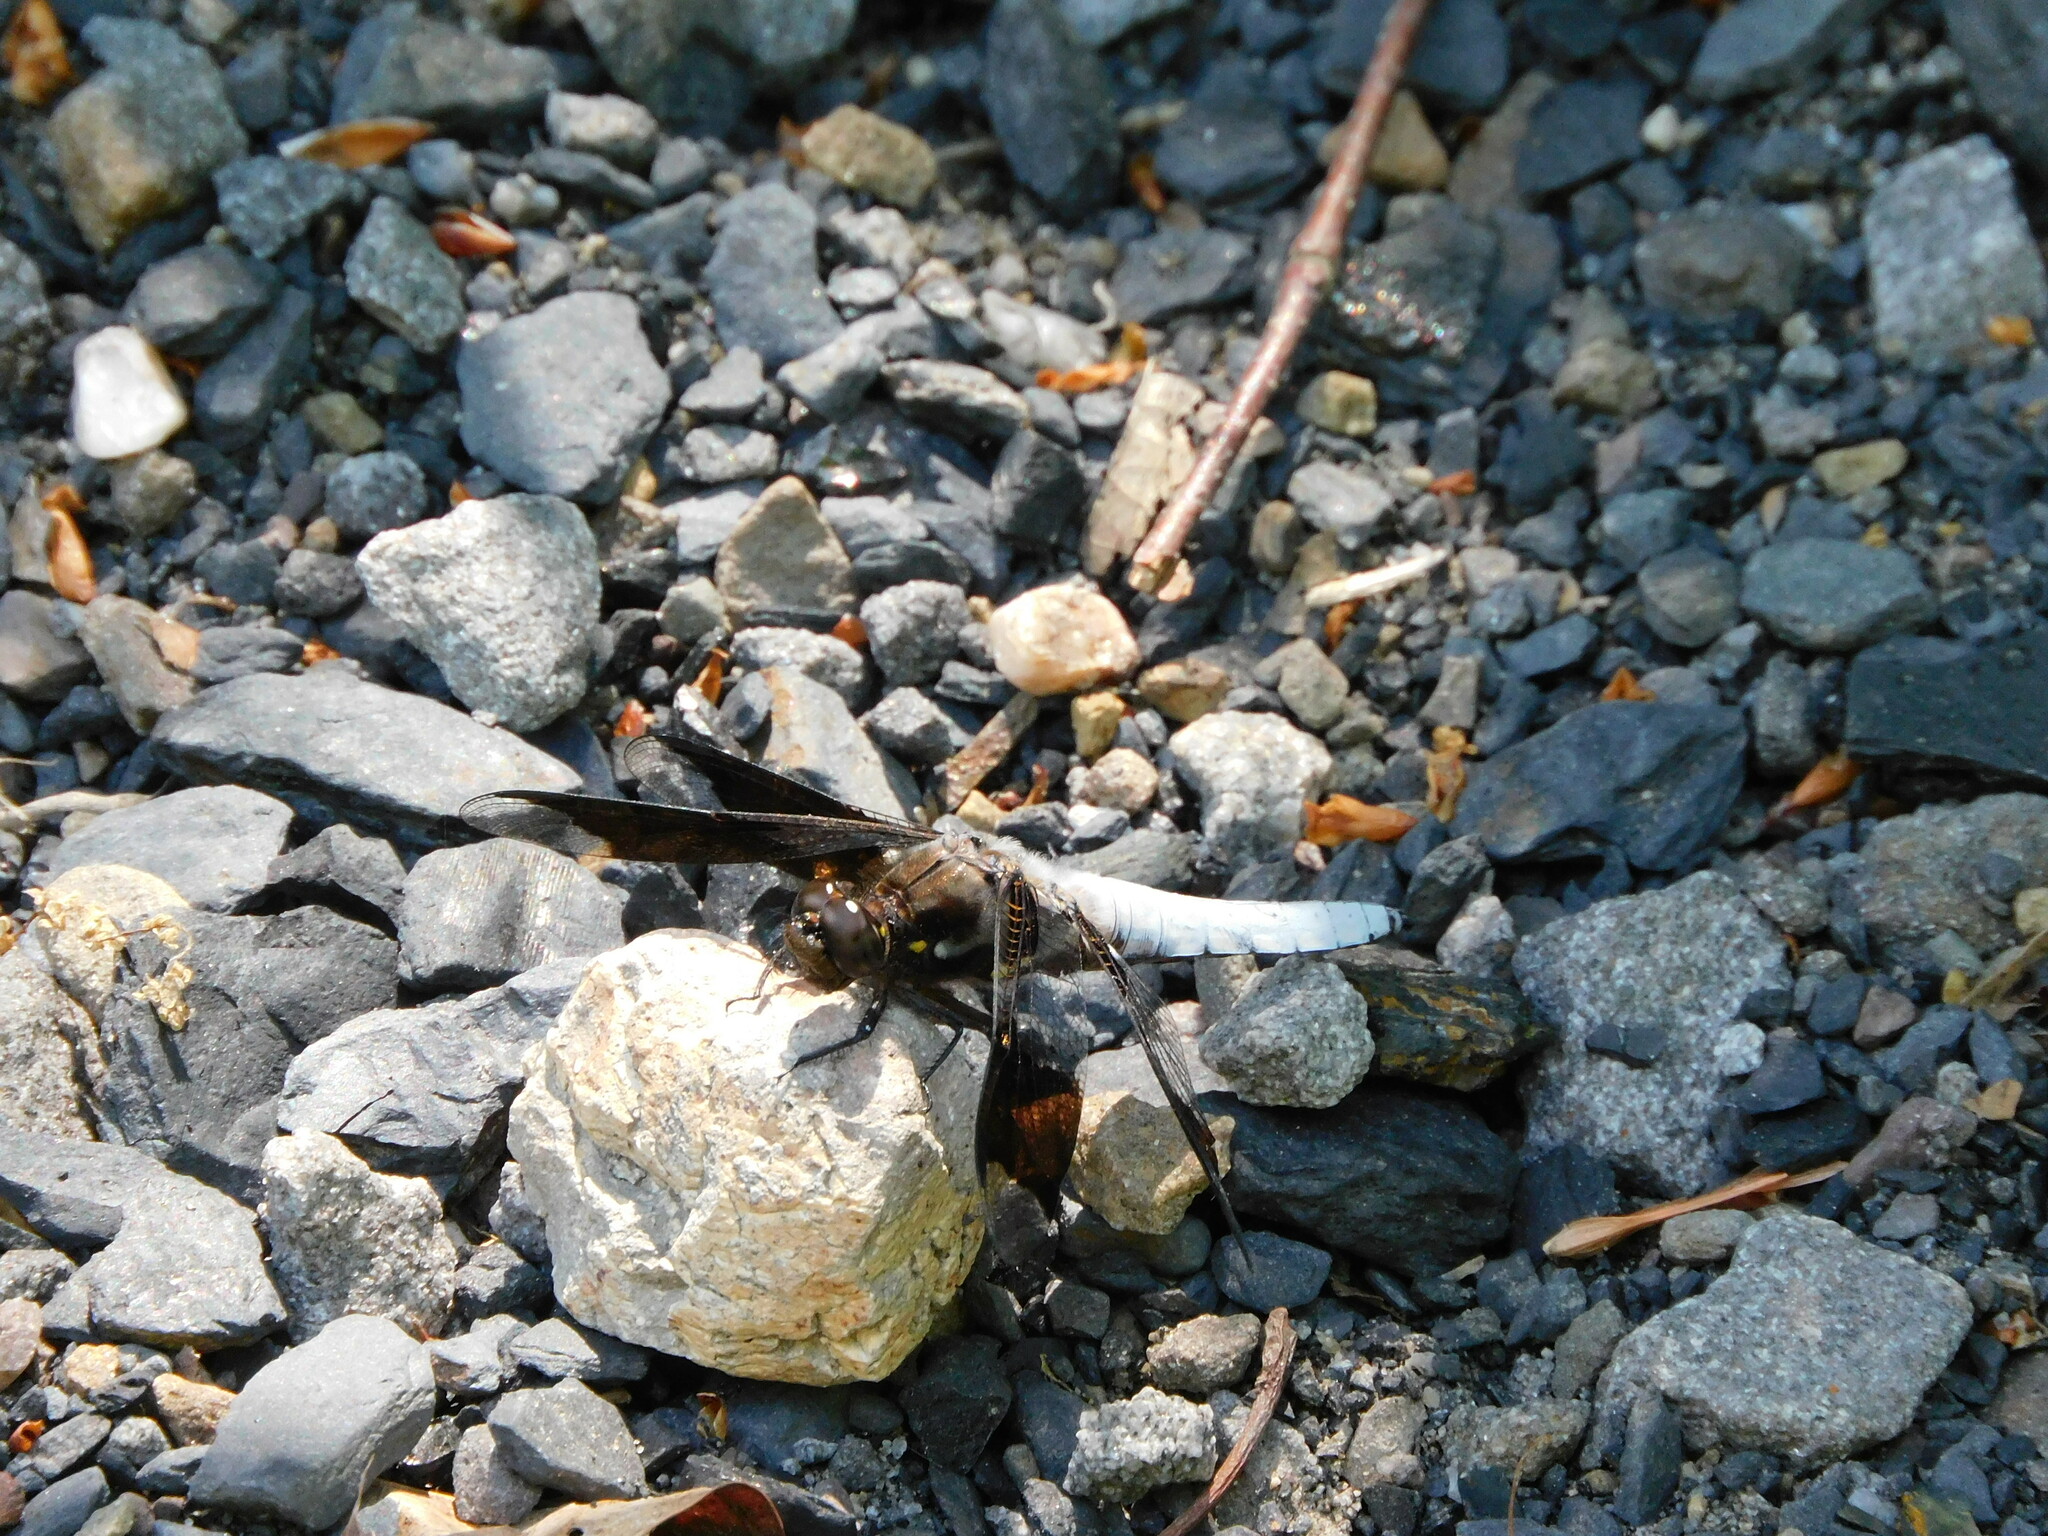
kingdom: Animalia
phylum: Arthropoda
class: Insecta
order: Odonata
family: Libellulidae
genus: Plathemis
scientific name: Plathemis lydia
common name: Common whitetail
